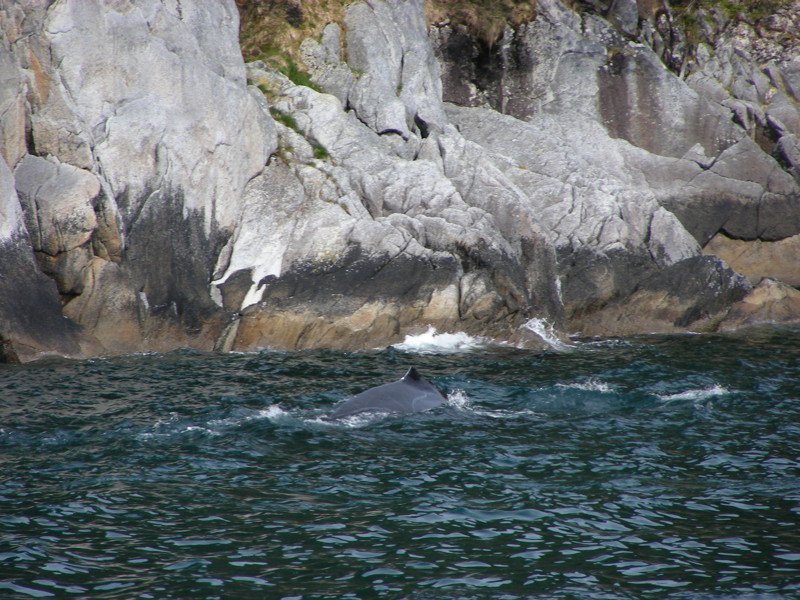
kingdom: Animalia
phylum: Chordata
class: Mammalia
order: Cetacea
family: Balaenopteridae
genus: Megaptera
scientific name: Megaptera novaeangliae
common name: Humpback whale
